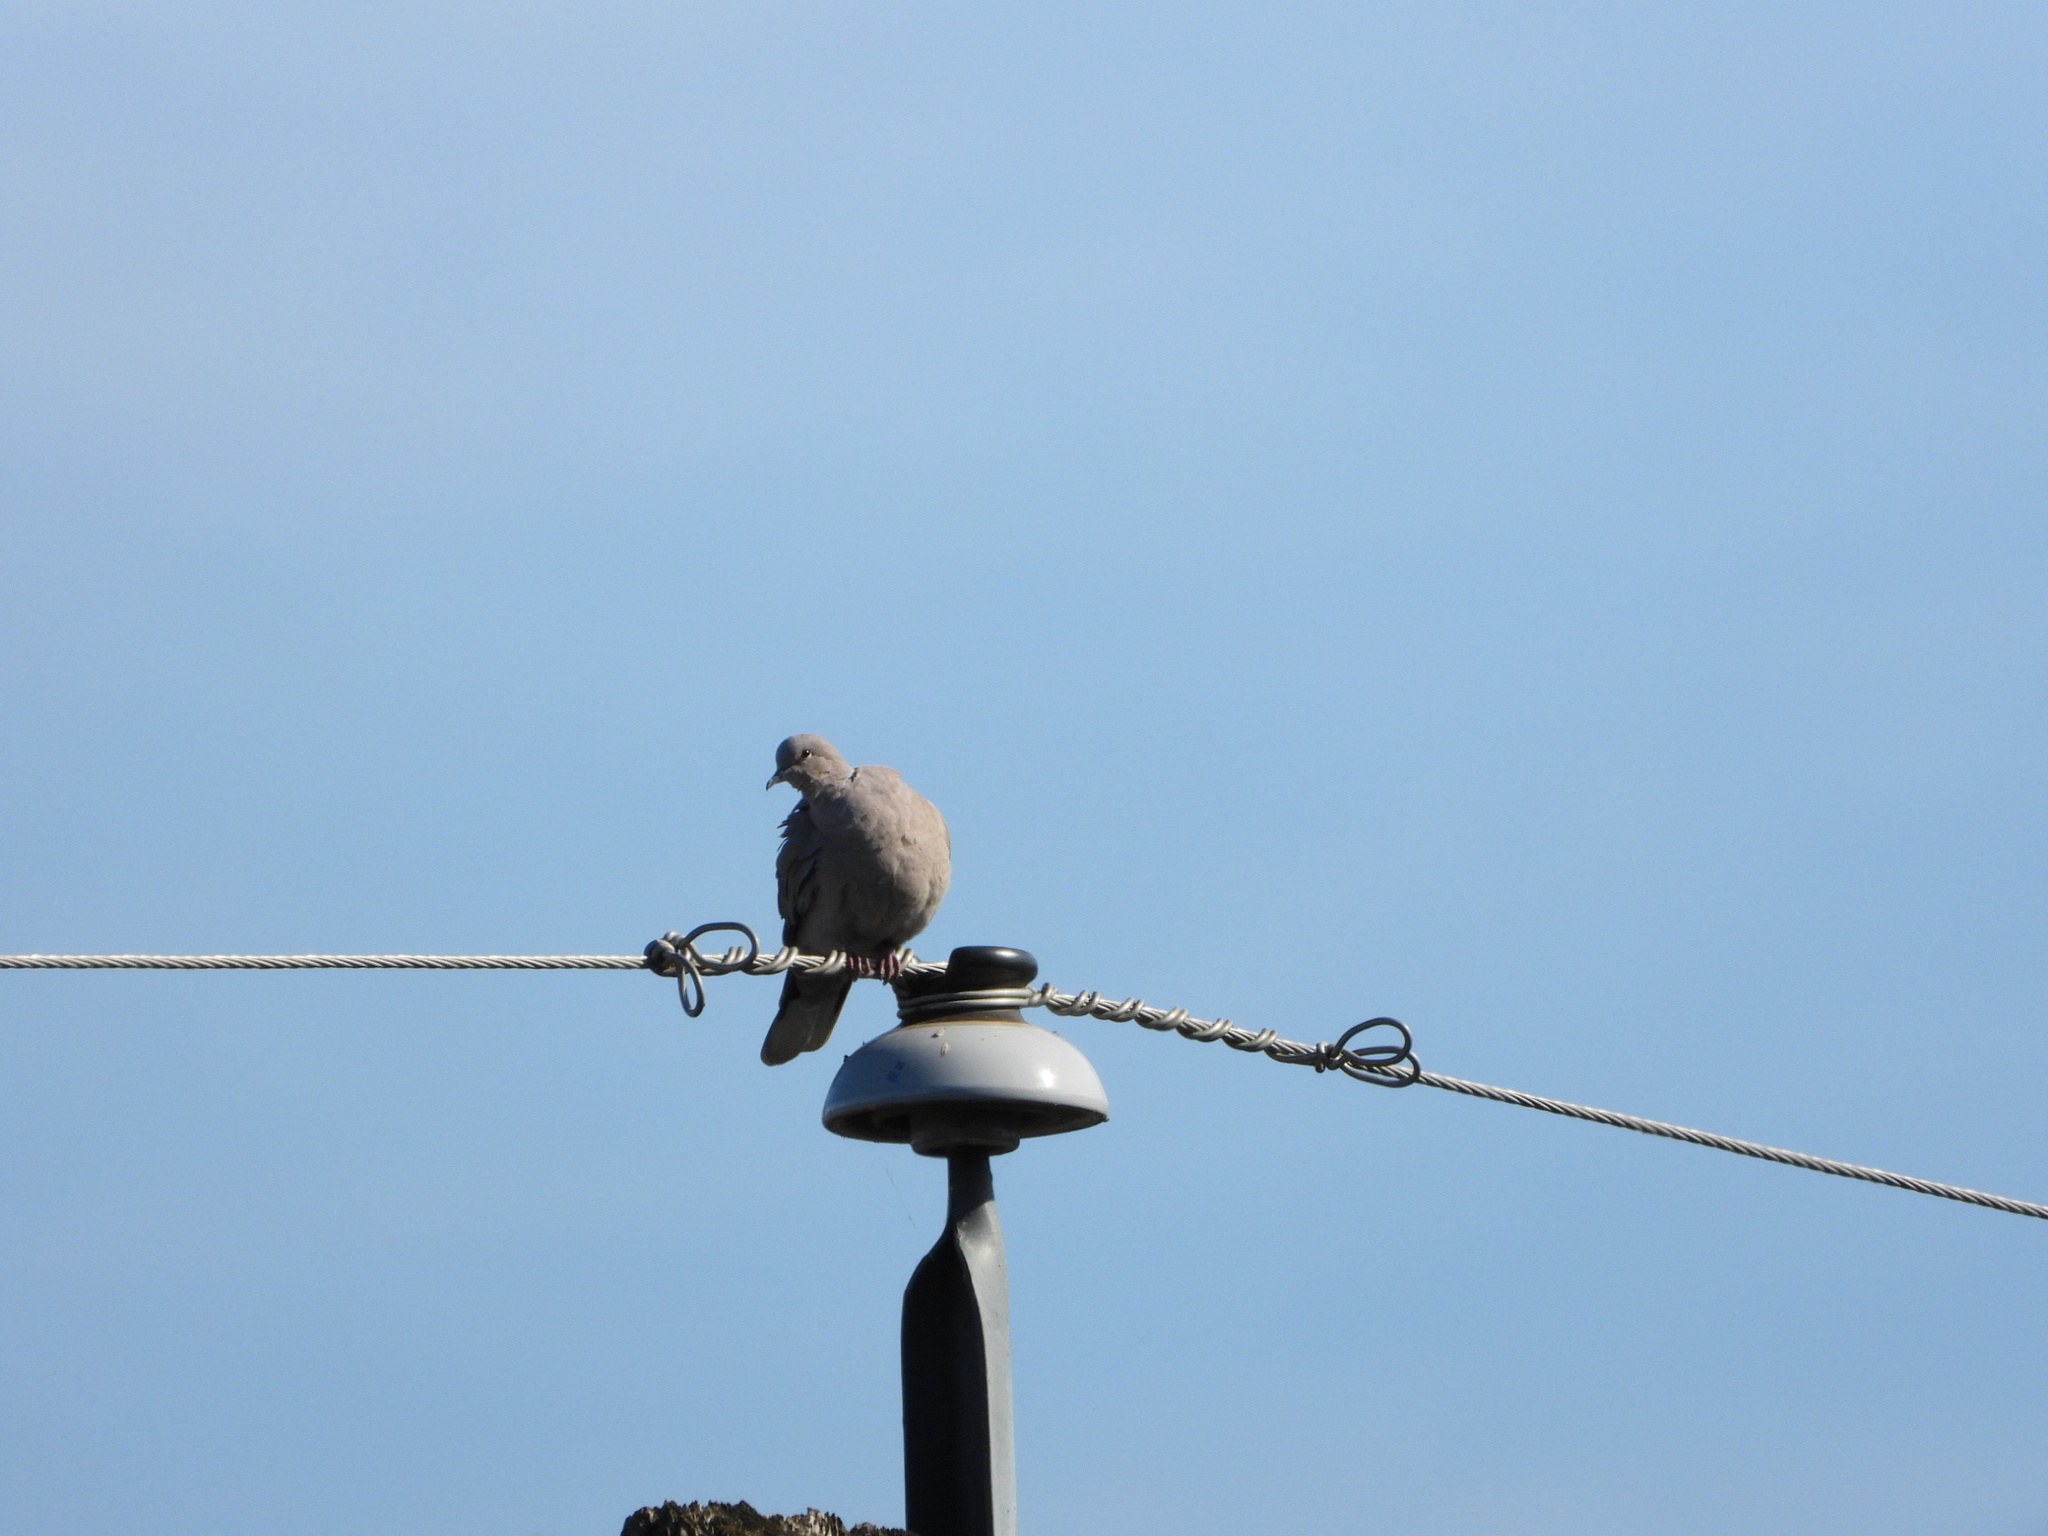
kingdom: Animalia
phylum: Chordata
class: Aves
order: Columbiformes
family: Columbidae
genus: Streptopelia
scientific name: Streptopelia decaocto
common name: Eurasian collared dove
